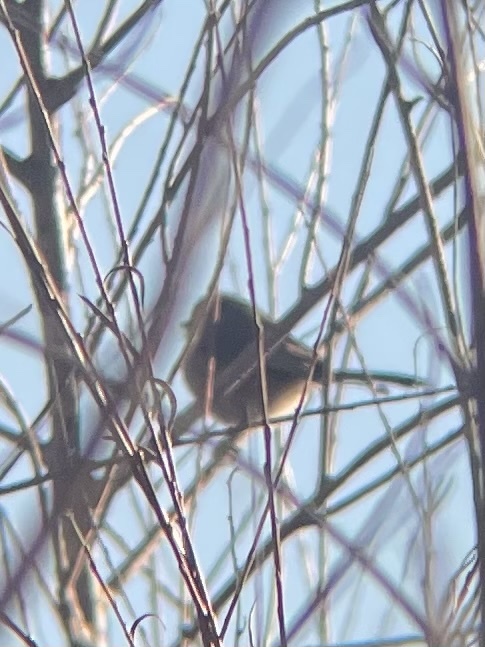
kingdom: Animalia
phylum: Chordata
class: Aves
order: Passeriformes
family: Aegithalidae
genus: Psaltriparus
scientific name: Psaltriparus minimus
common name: American bushtit
